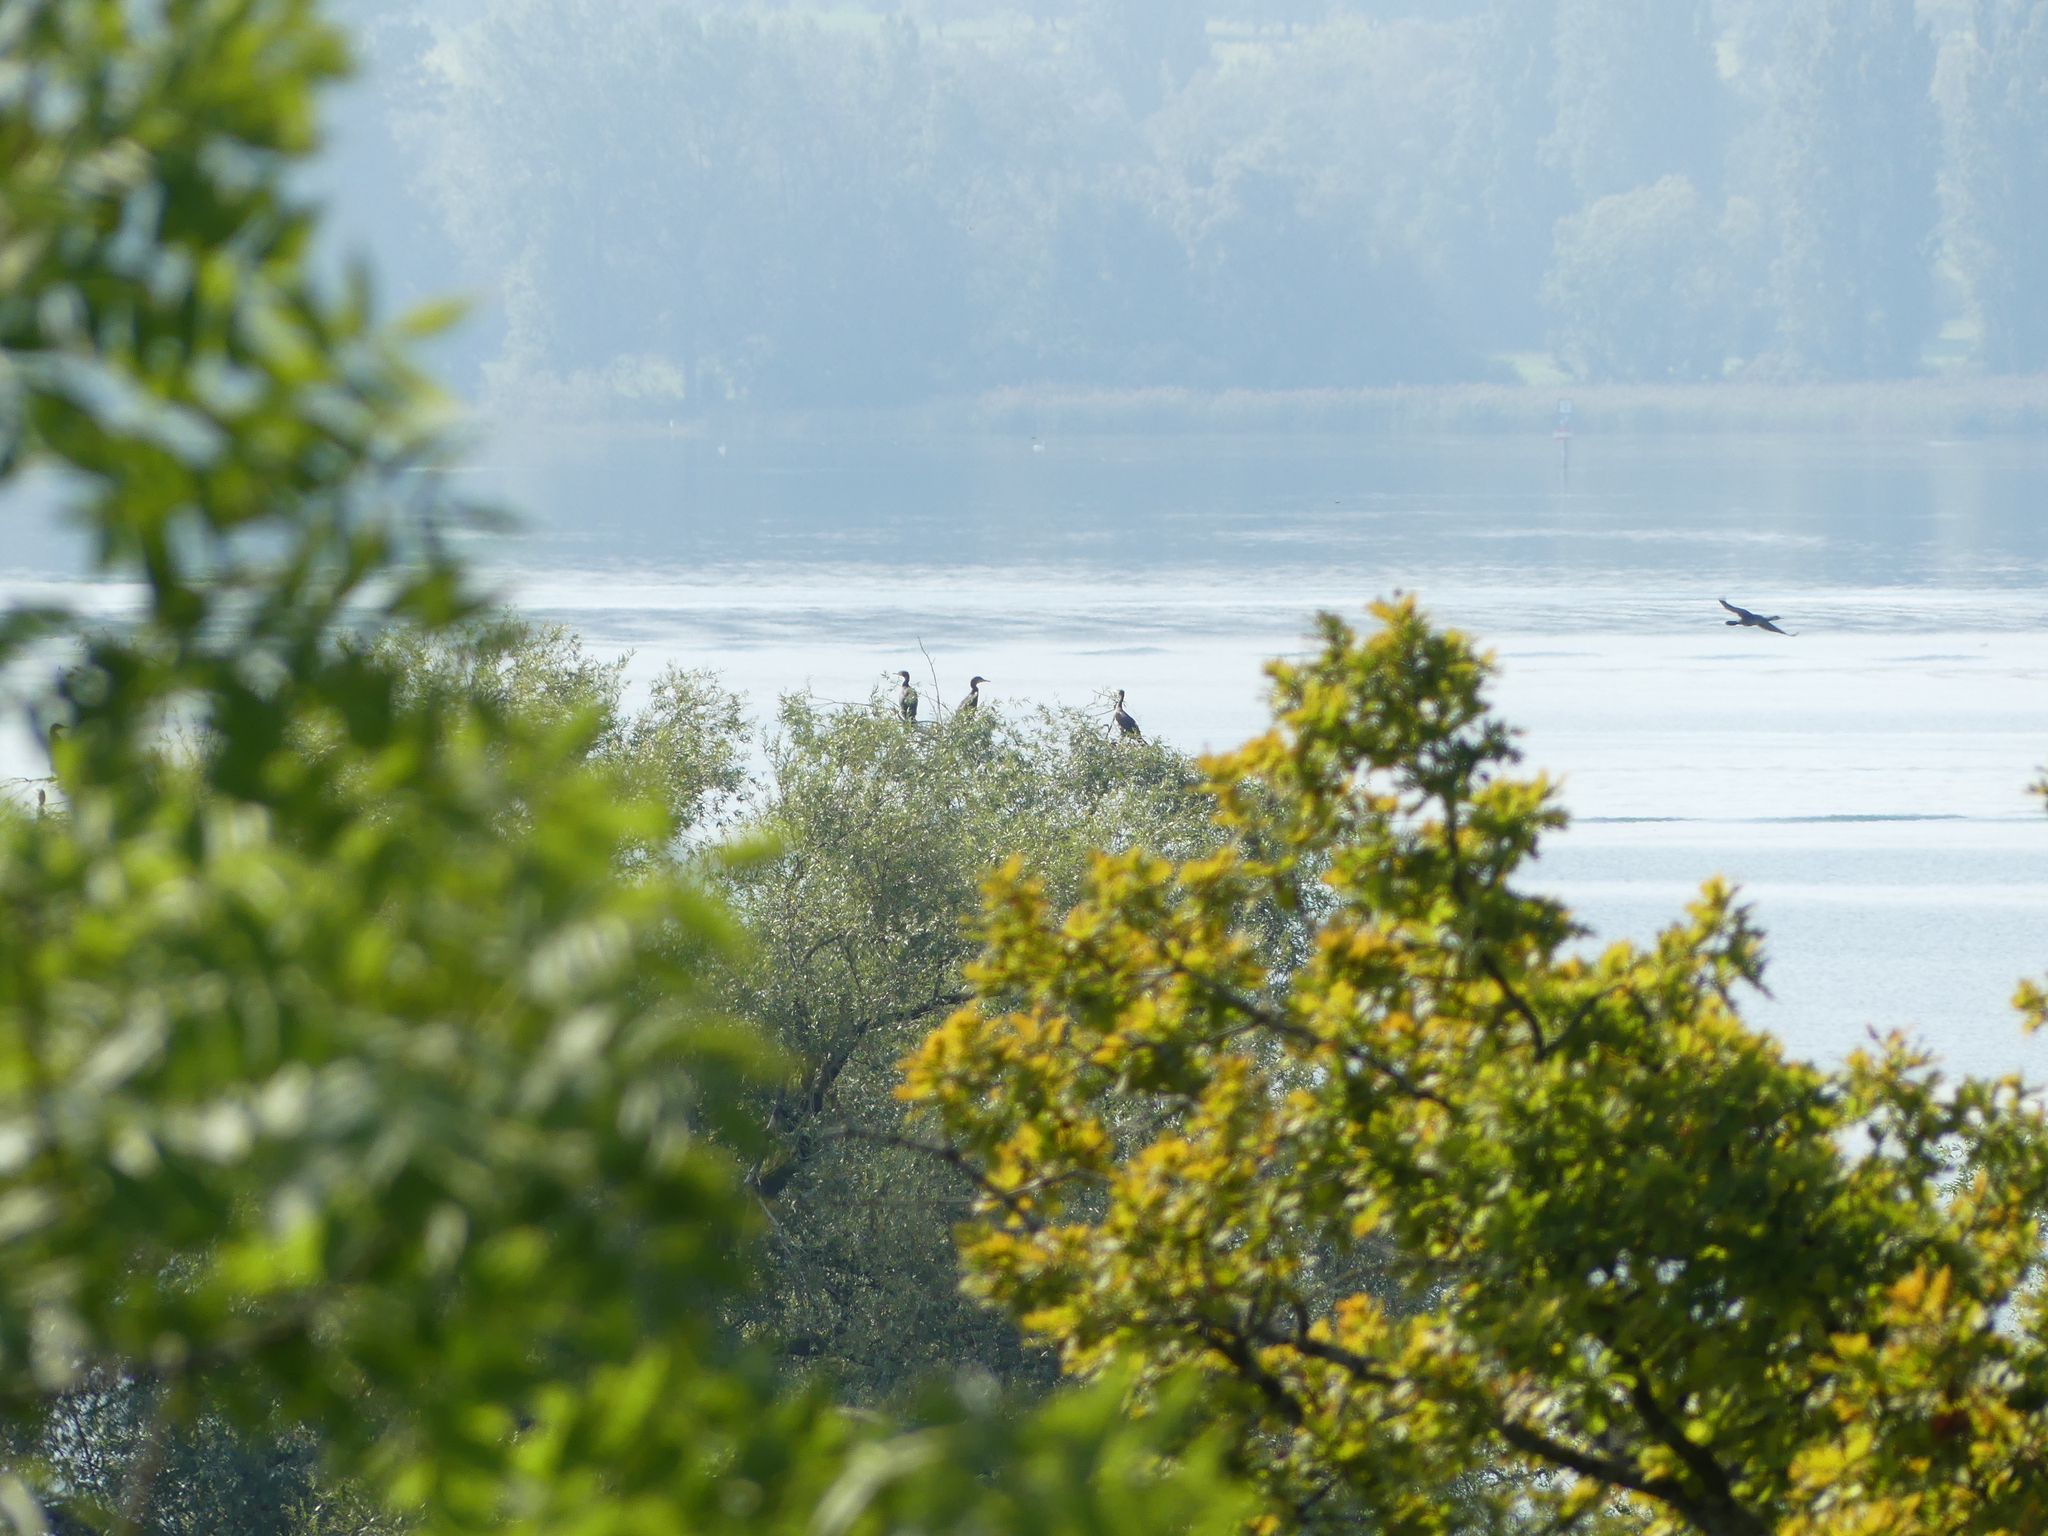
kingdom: Animalia
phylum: Chordata
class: Aves
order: Suliformes
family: Phalacrocoracidae
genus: Phalacrocorax
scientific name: Phalacrocorax carbo
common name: Great cormorant
